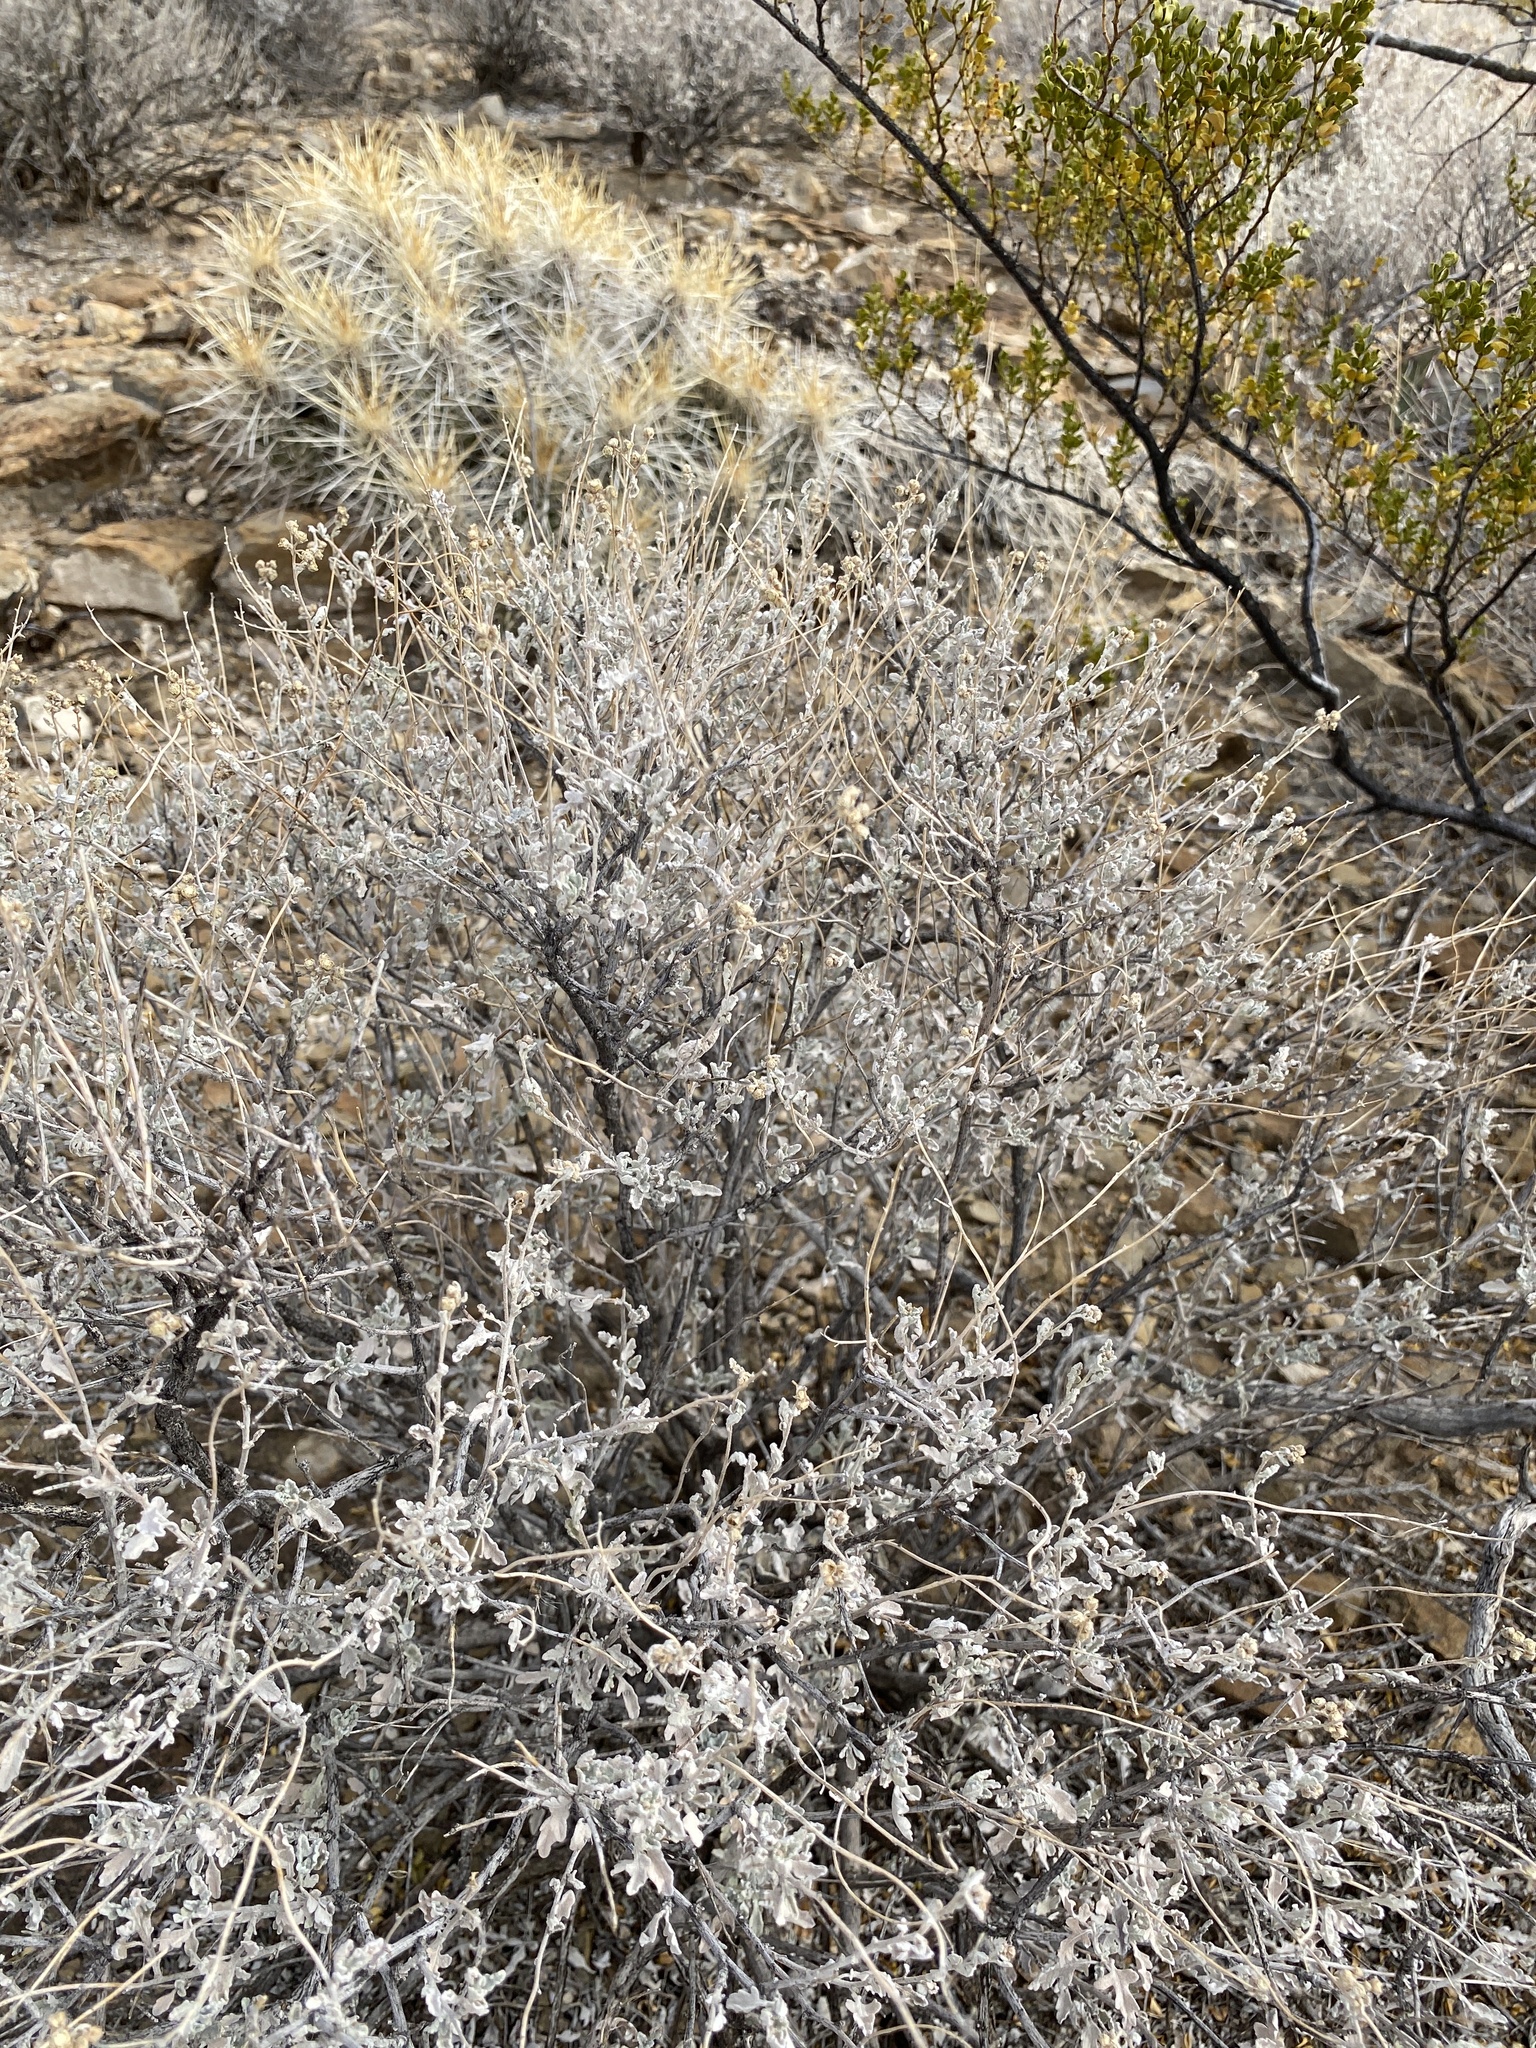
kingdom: Plantae
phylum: Tracheophyta
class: Magnoliopsida
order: Asterales
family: Asteraceae
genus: Parthenium
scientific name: Parthenium incanum
